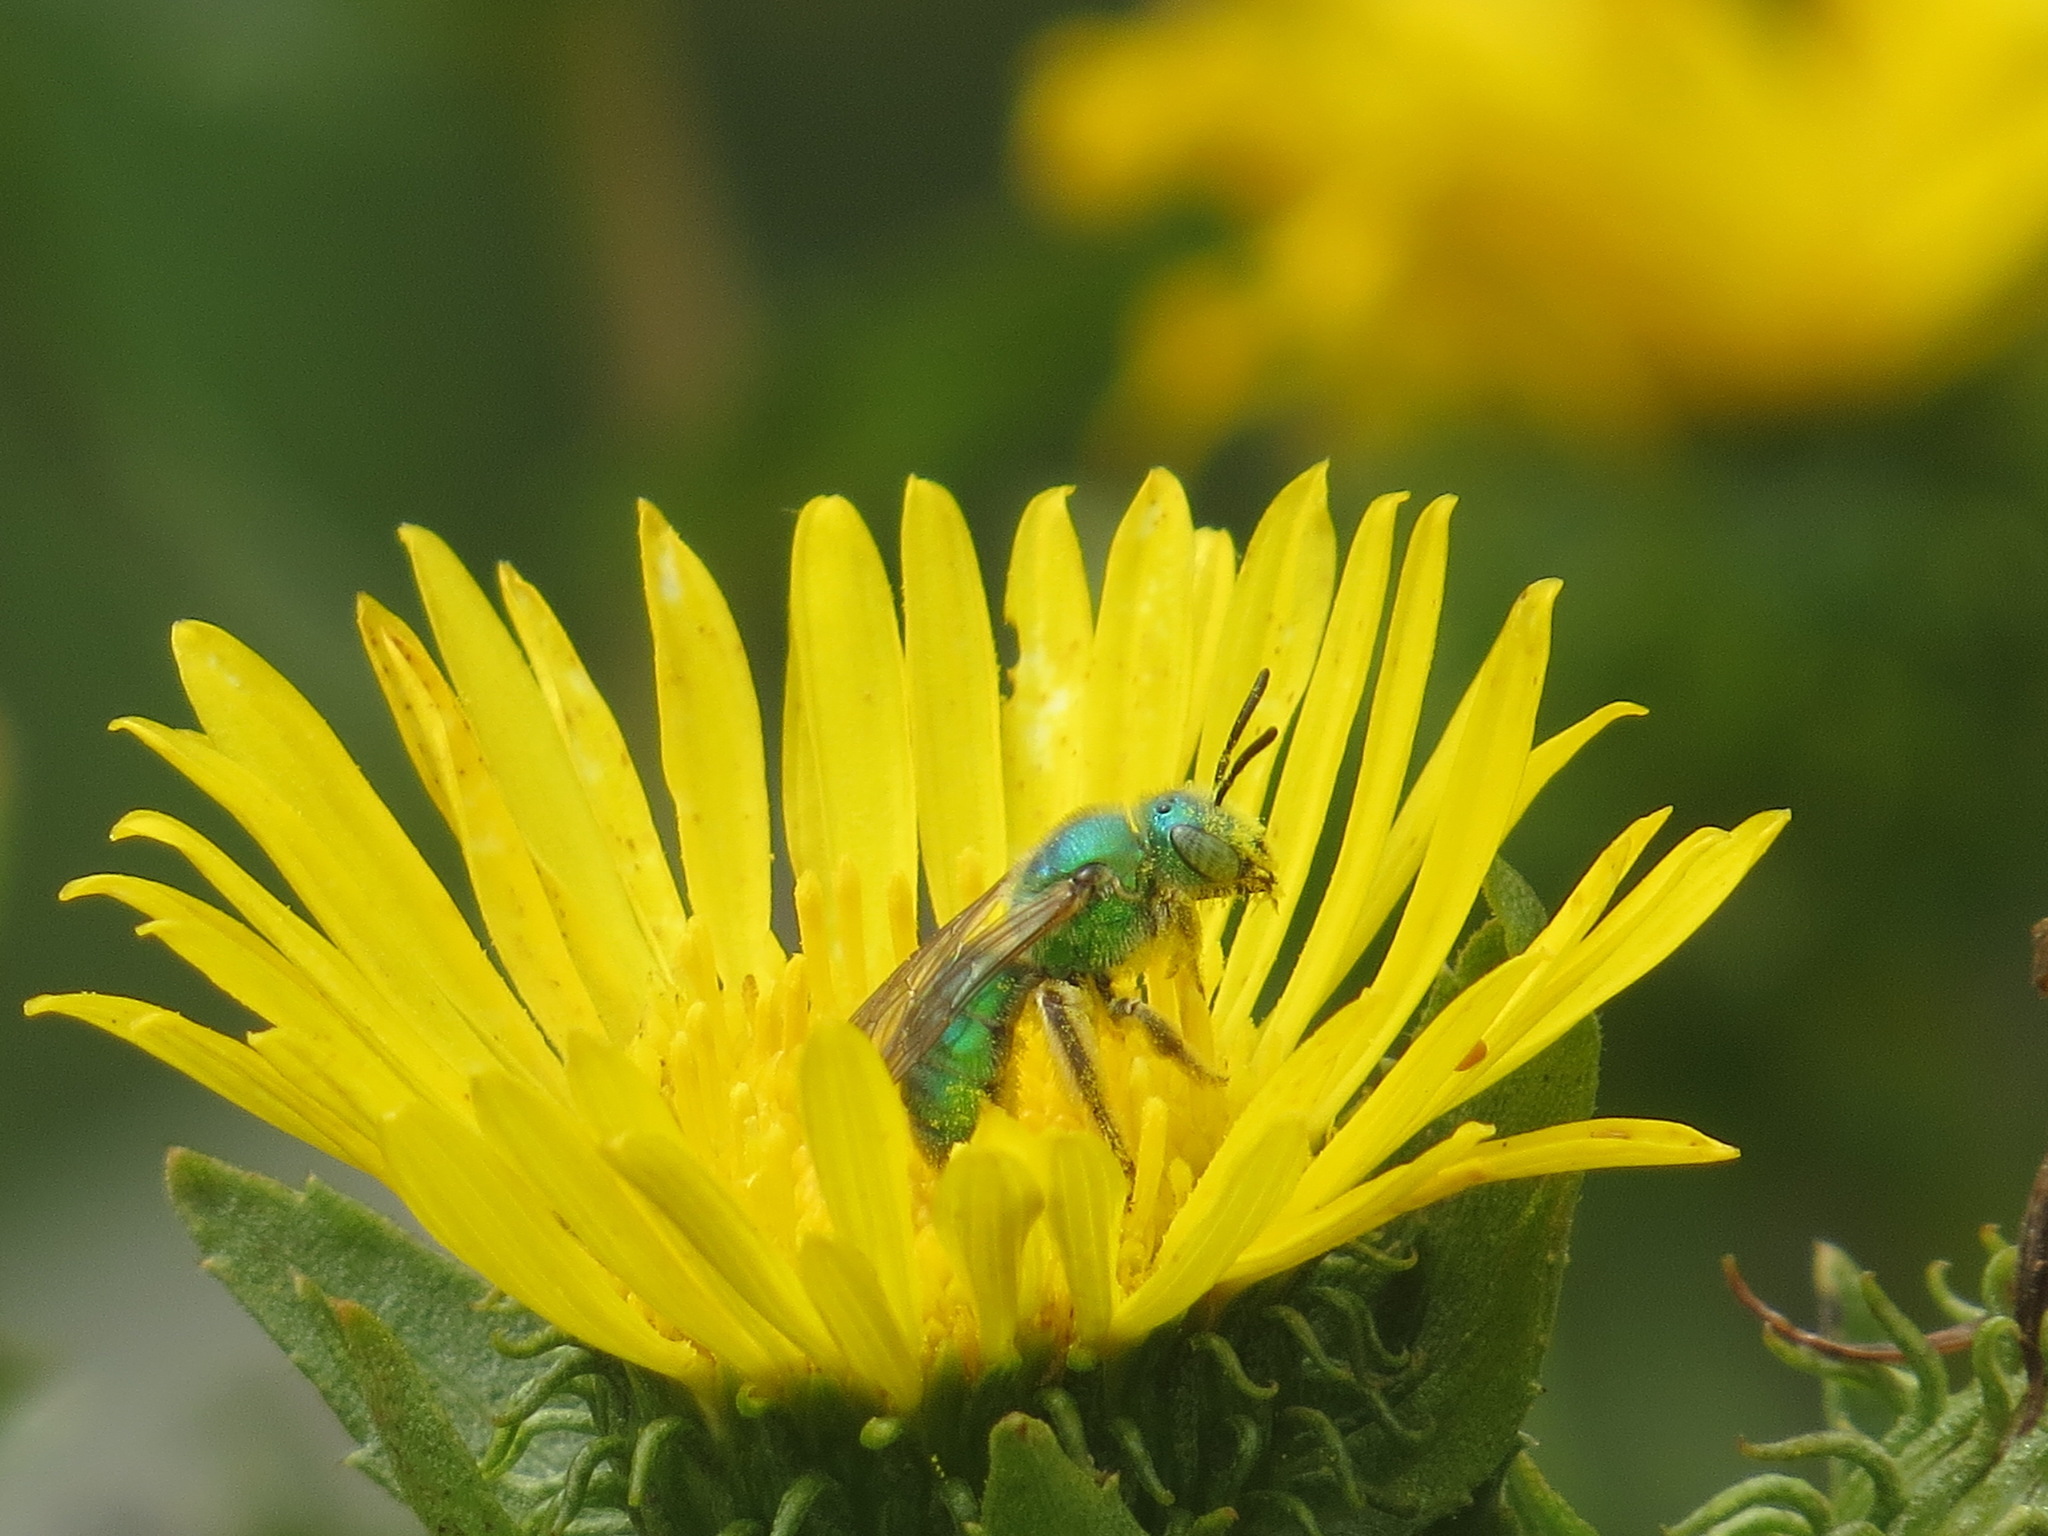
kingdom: Animalia
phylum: Arthropoda
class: Insecta
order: Hymenoptera
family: Halictidae
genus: Agapostemon
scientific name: Agapostemon texanus
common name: Texas striped sweat bee
